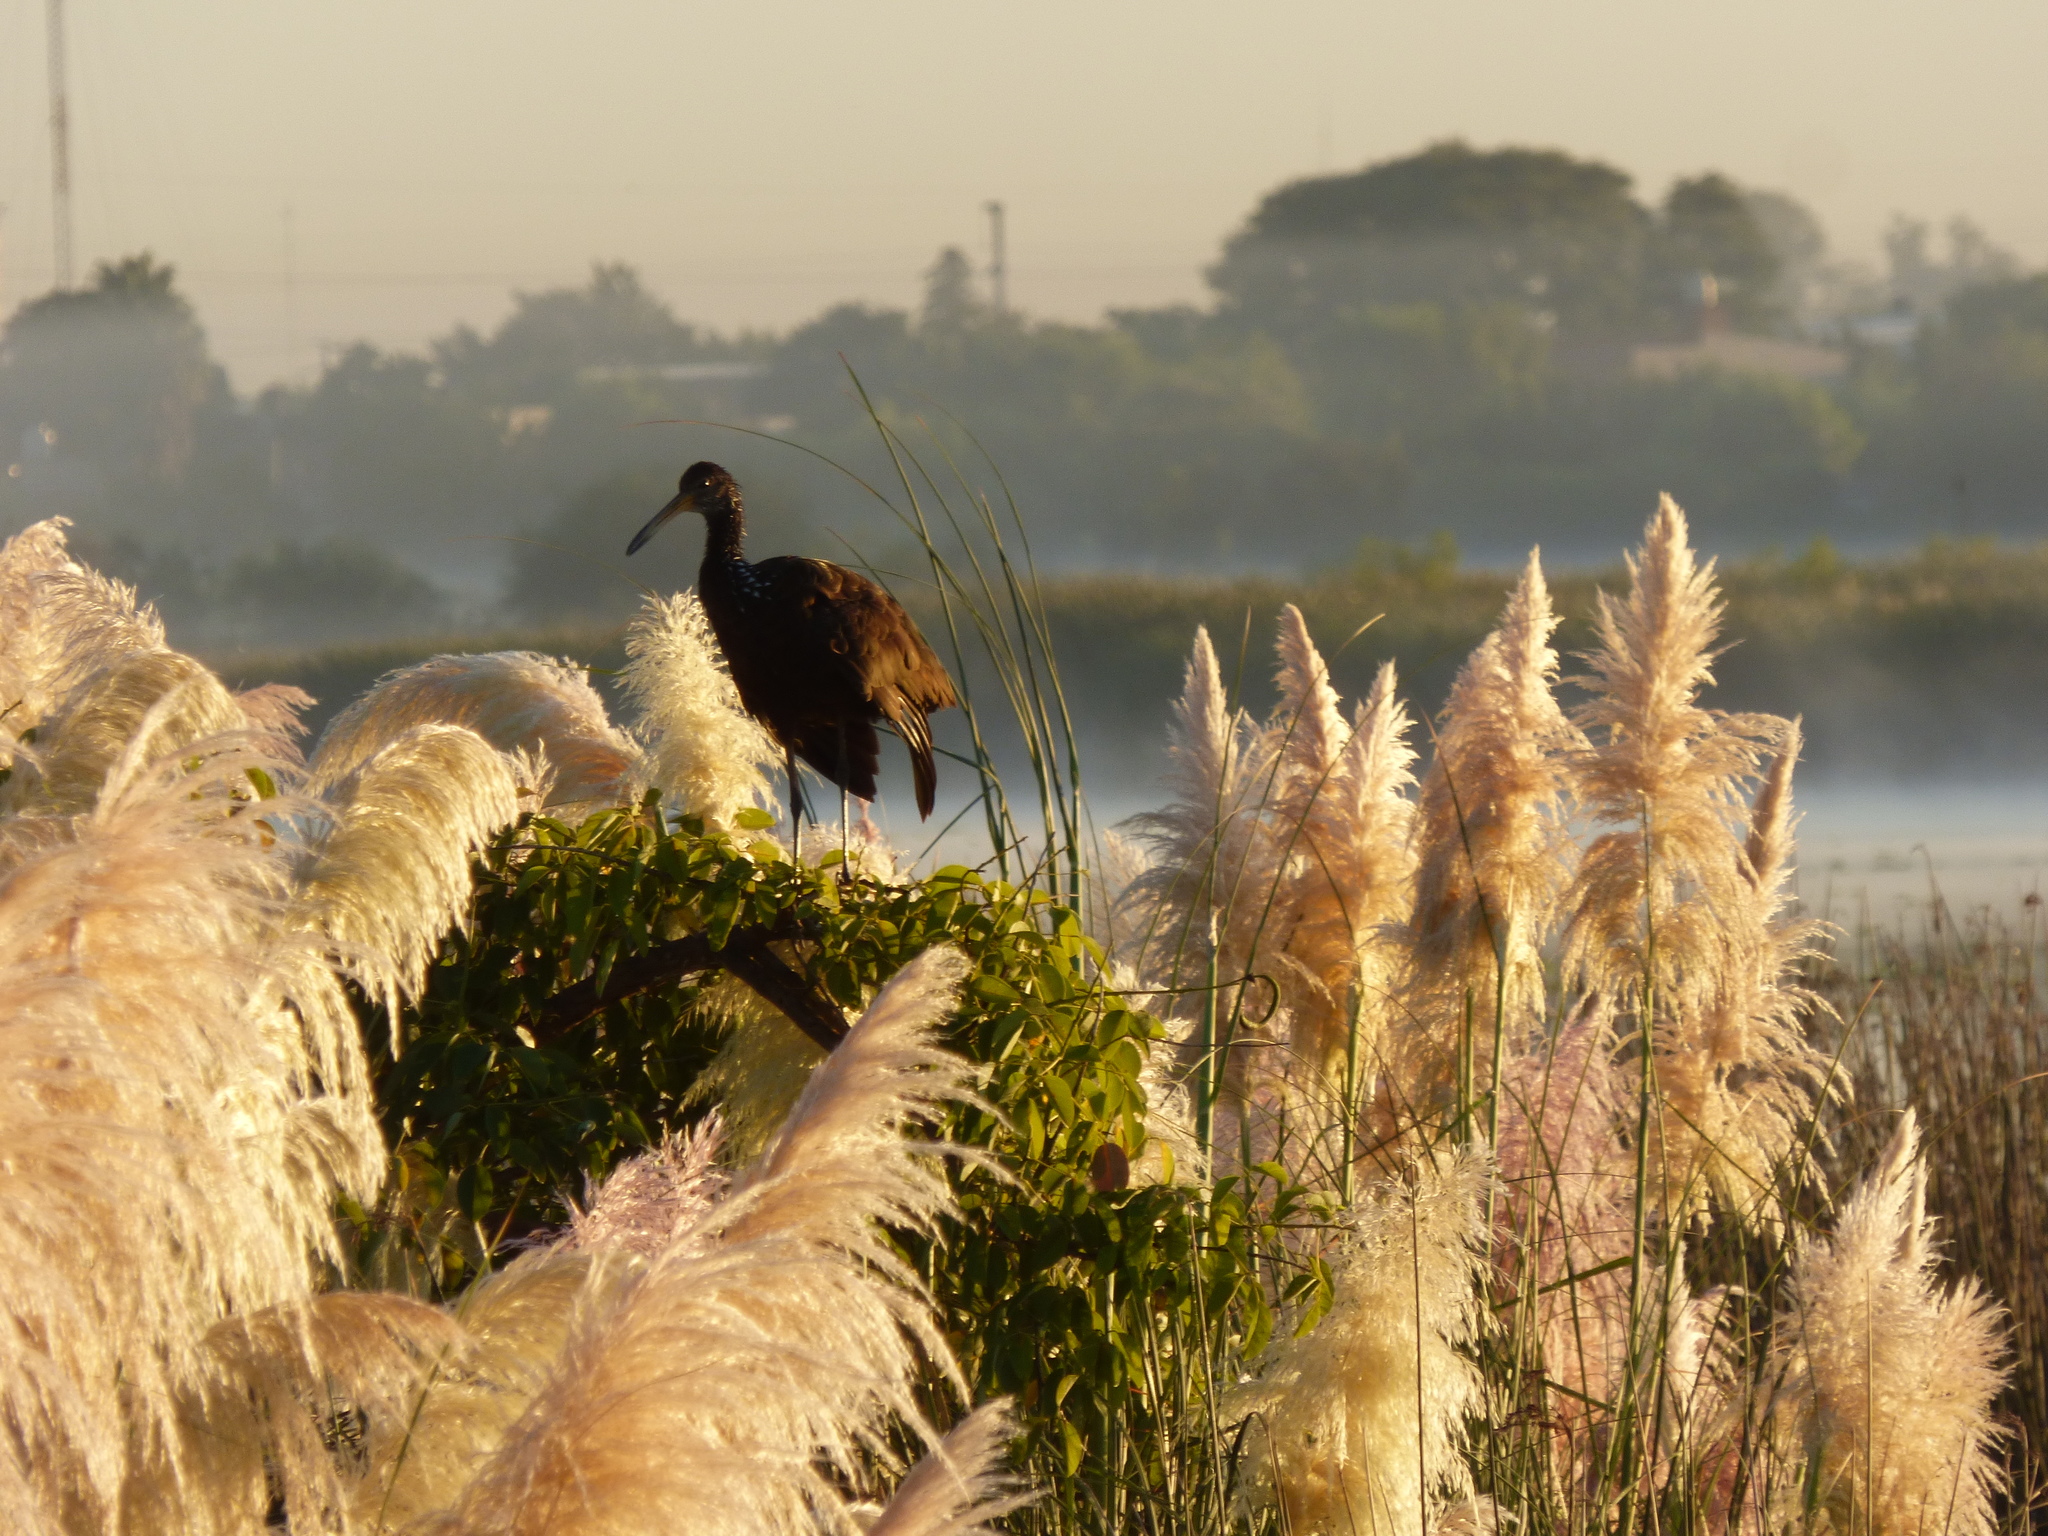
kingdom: Animalia
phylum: Chordata
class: Aves
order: Gruiformes
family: Aramidae
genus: Aramus
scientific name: Aramus guarauna
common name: Limpkin
